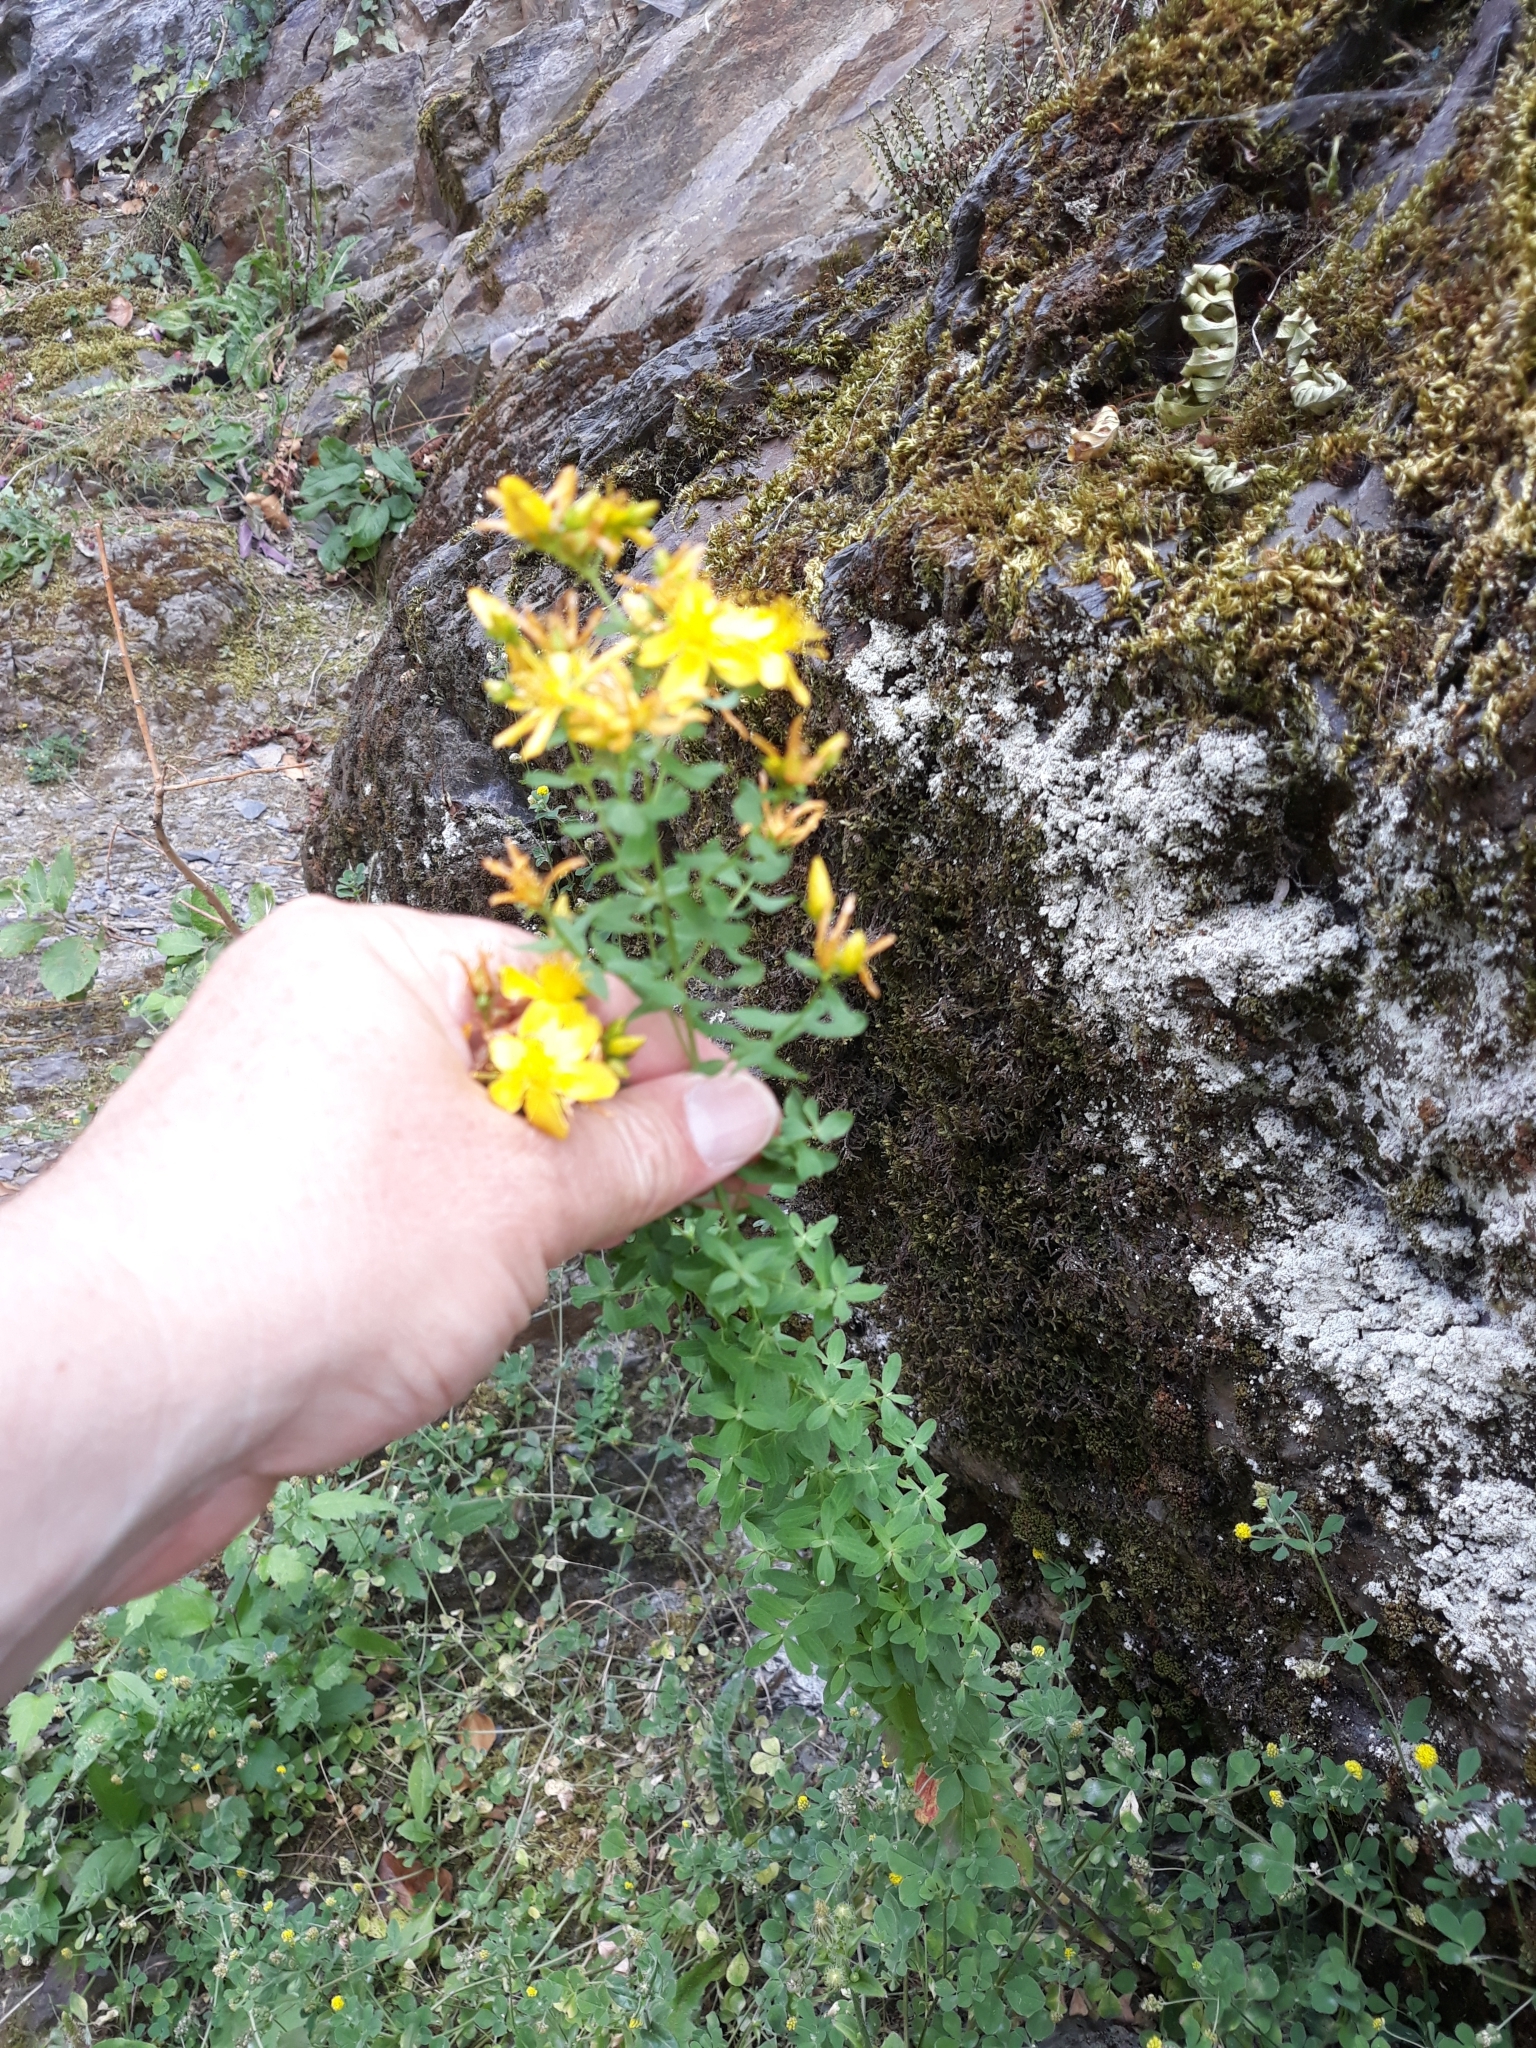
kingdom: Plantae
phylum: Tracheophyta
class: Magnoliopsida
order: Malpighiales
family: Hypericaceae
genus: Hypericum
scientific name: Hypericum perforatum
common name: Common st. johnswort
